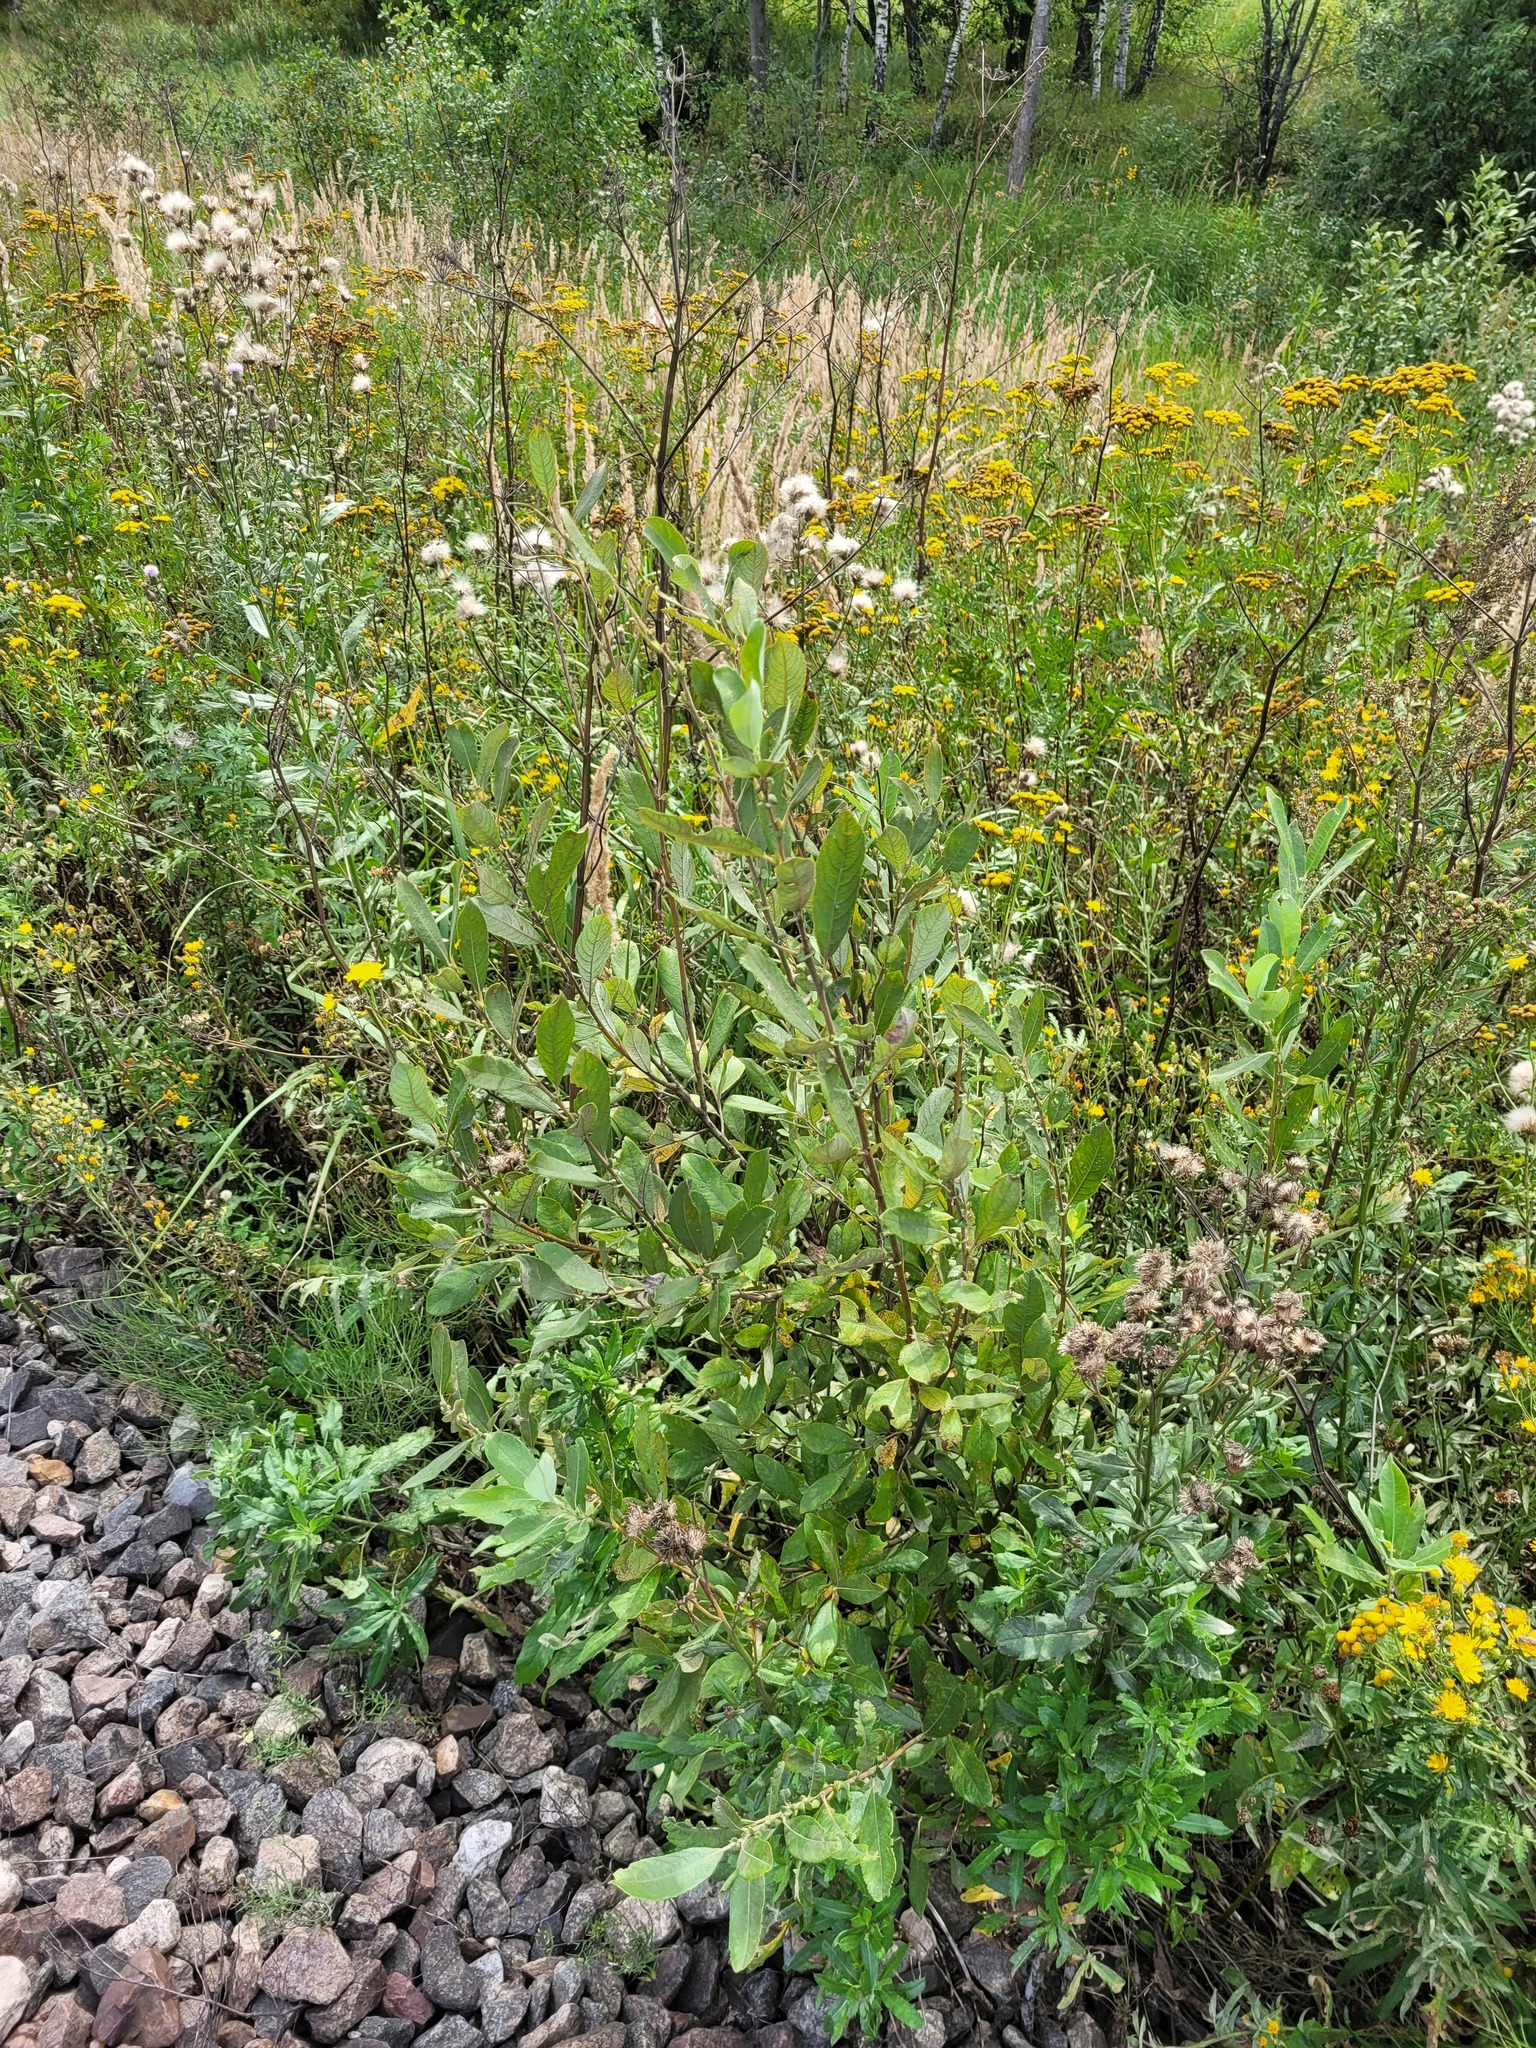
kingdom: Plantae
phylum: Tracheophyta
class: Magnoliopsida
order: Malpighiales
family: Salicaceae
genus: Salix
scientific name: Salix cinerea
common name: Common sallow
